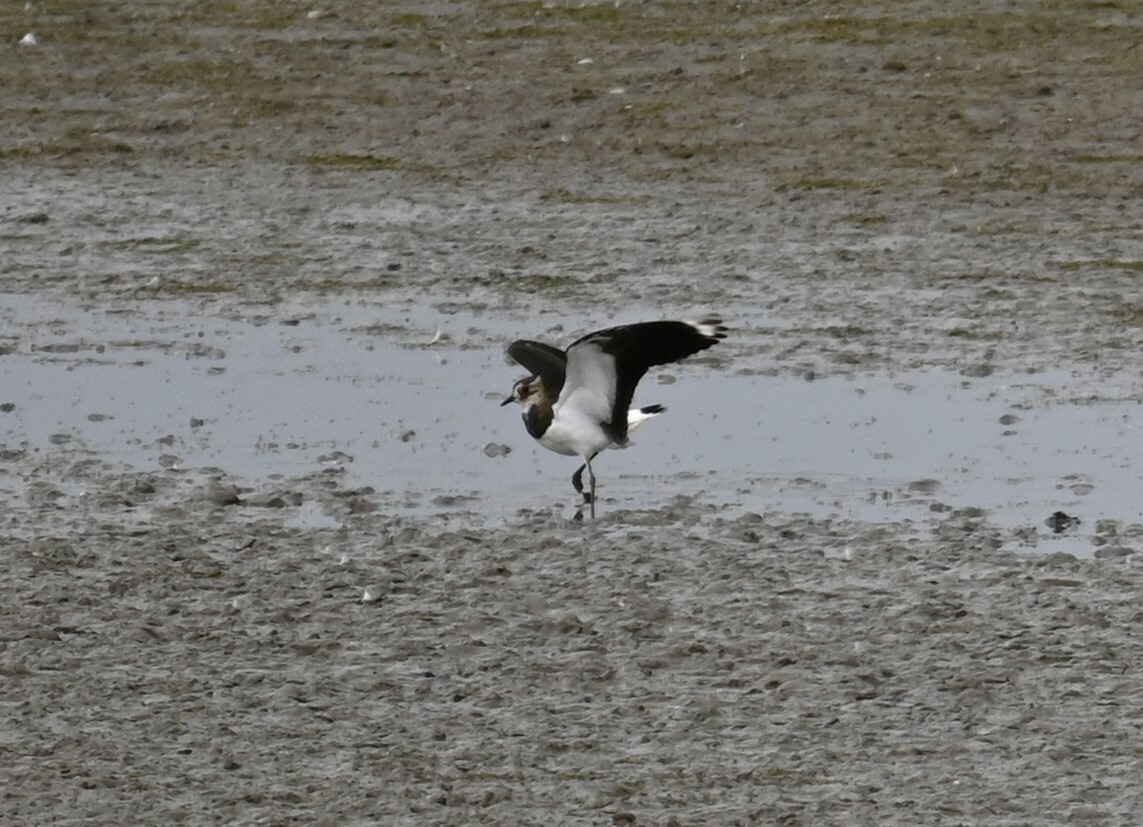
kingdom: Animalia
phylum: Chordata
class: Aves
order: Charadriiformes
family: Charadriidae
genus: Vanellus
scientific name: Vanellus vanellus
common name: Northern lapwing
